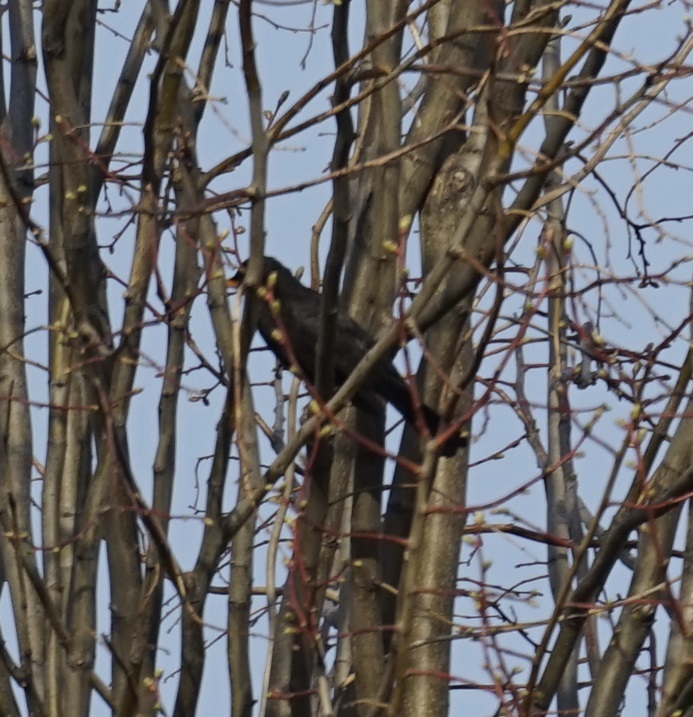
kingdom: Animalia
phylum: Chordata
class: Aves
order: Passeriformes
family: Turdidae
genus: Turdus
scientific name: Turdus merula
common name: Common blackbird
